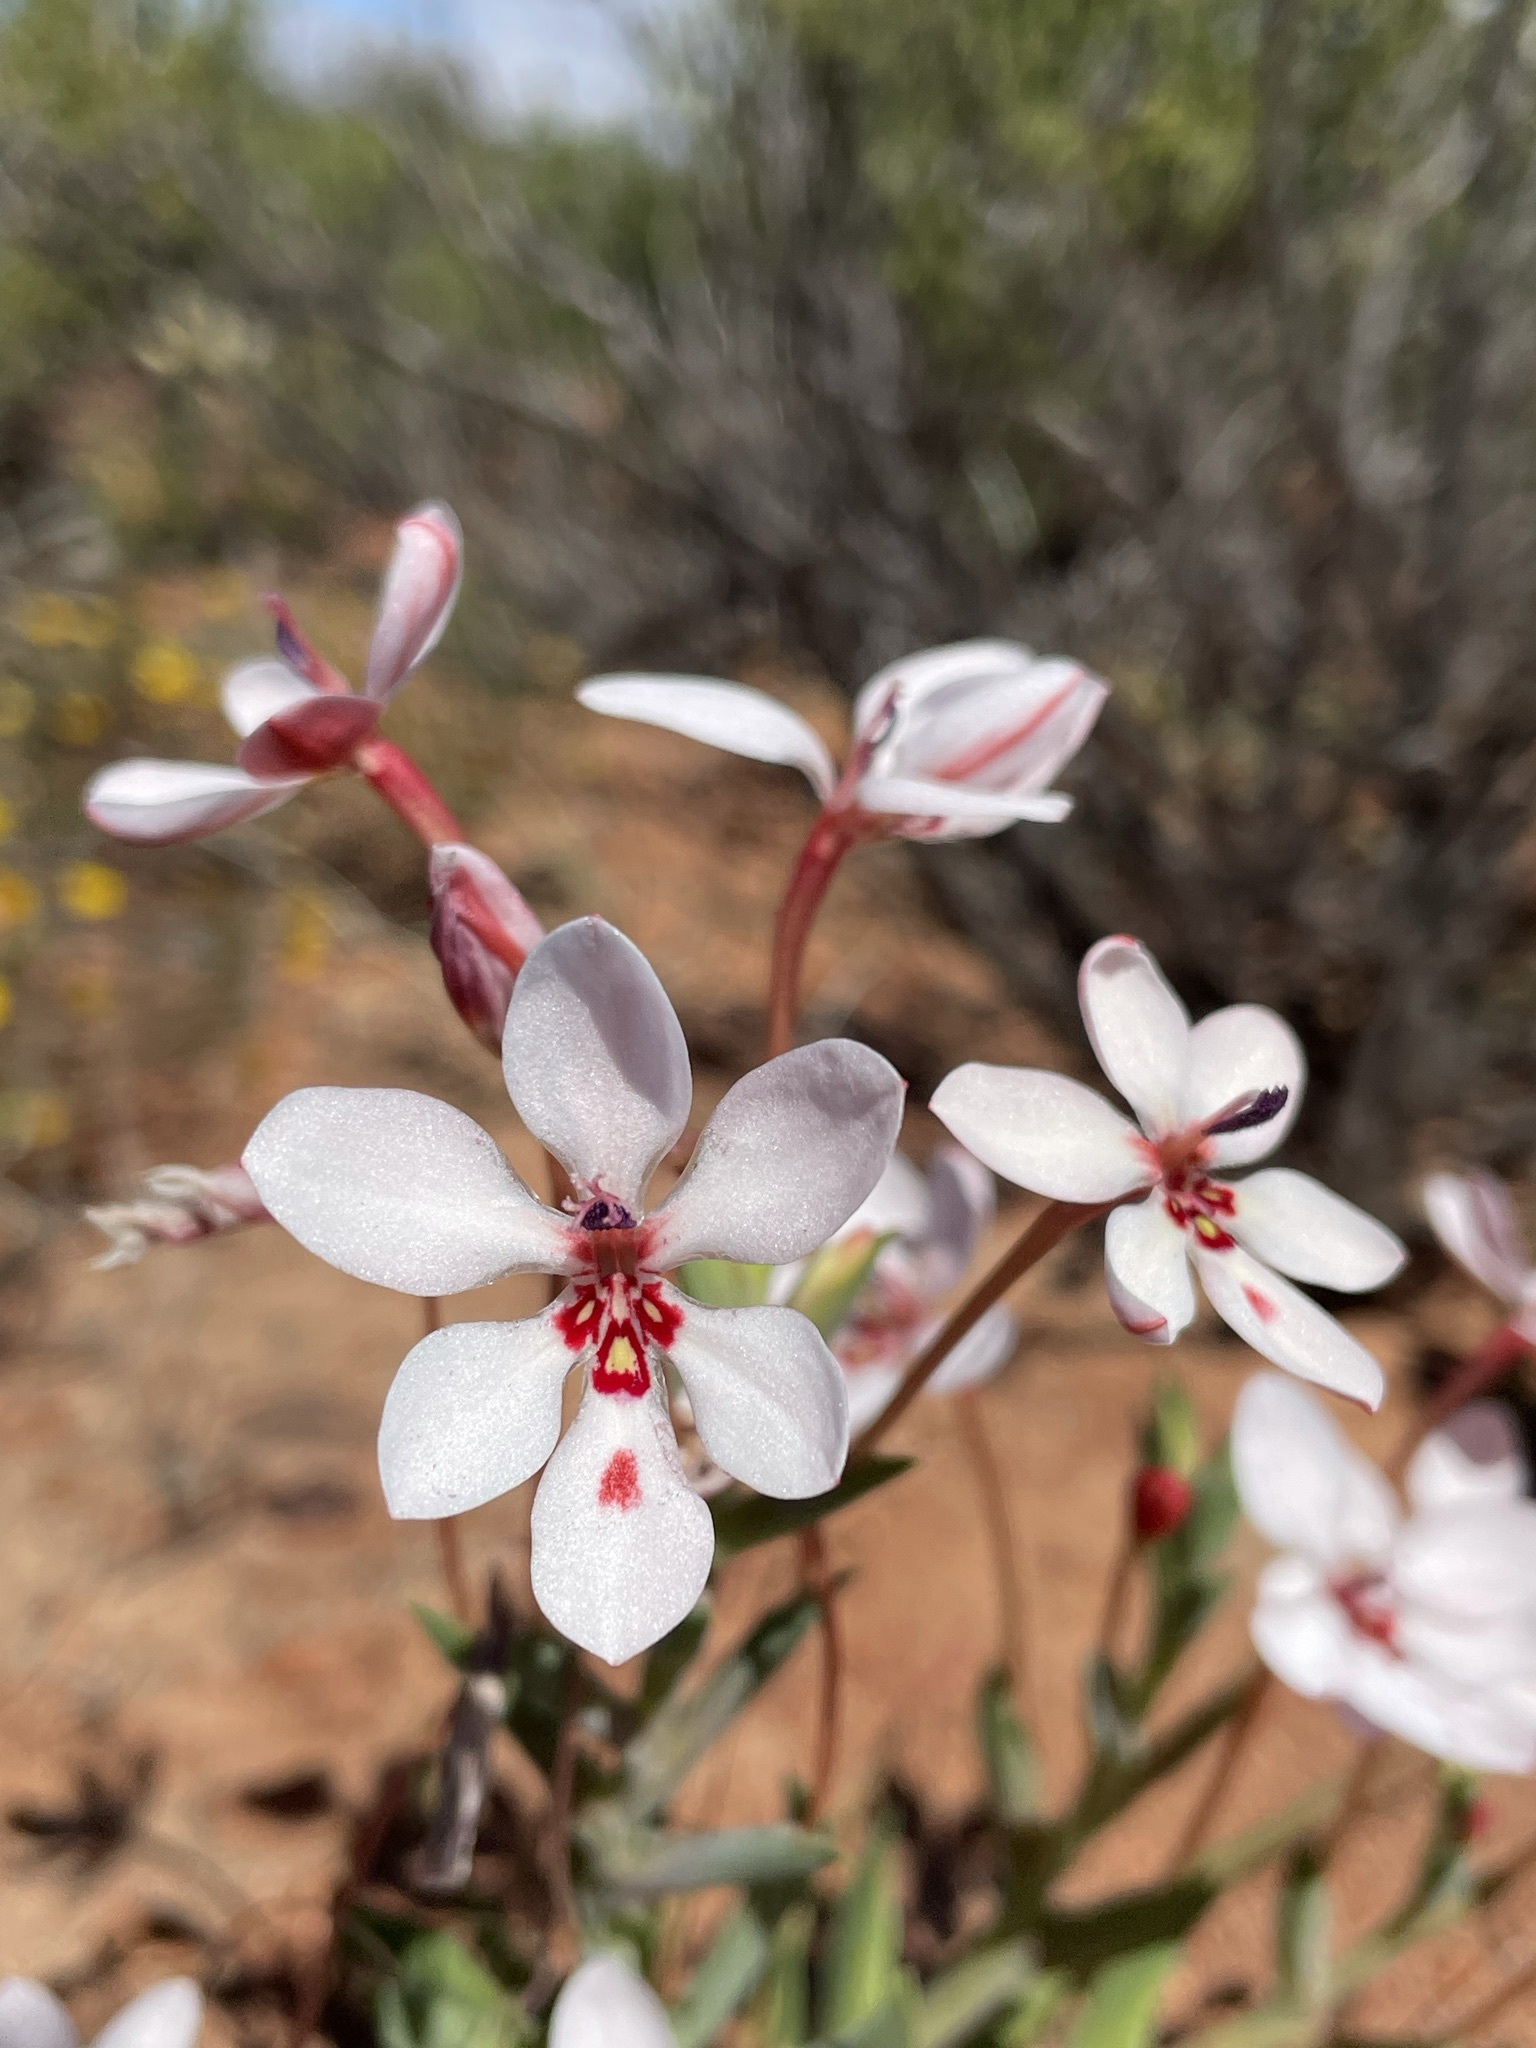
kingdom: Plantae
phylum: Tracheophyta
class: Liliopsida
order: Asparagales
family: Iridaceae
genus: Lapeirousia
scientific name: Lapeirousia verecunda
